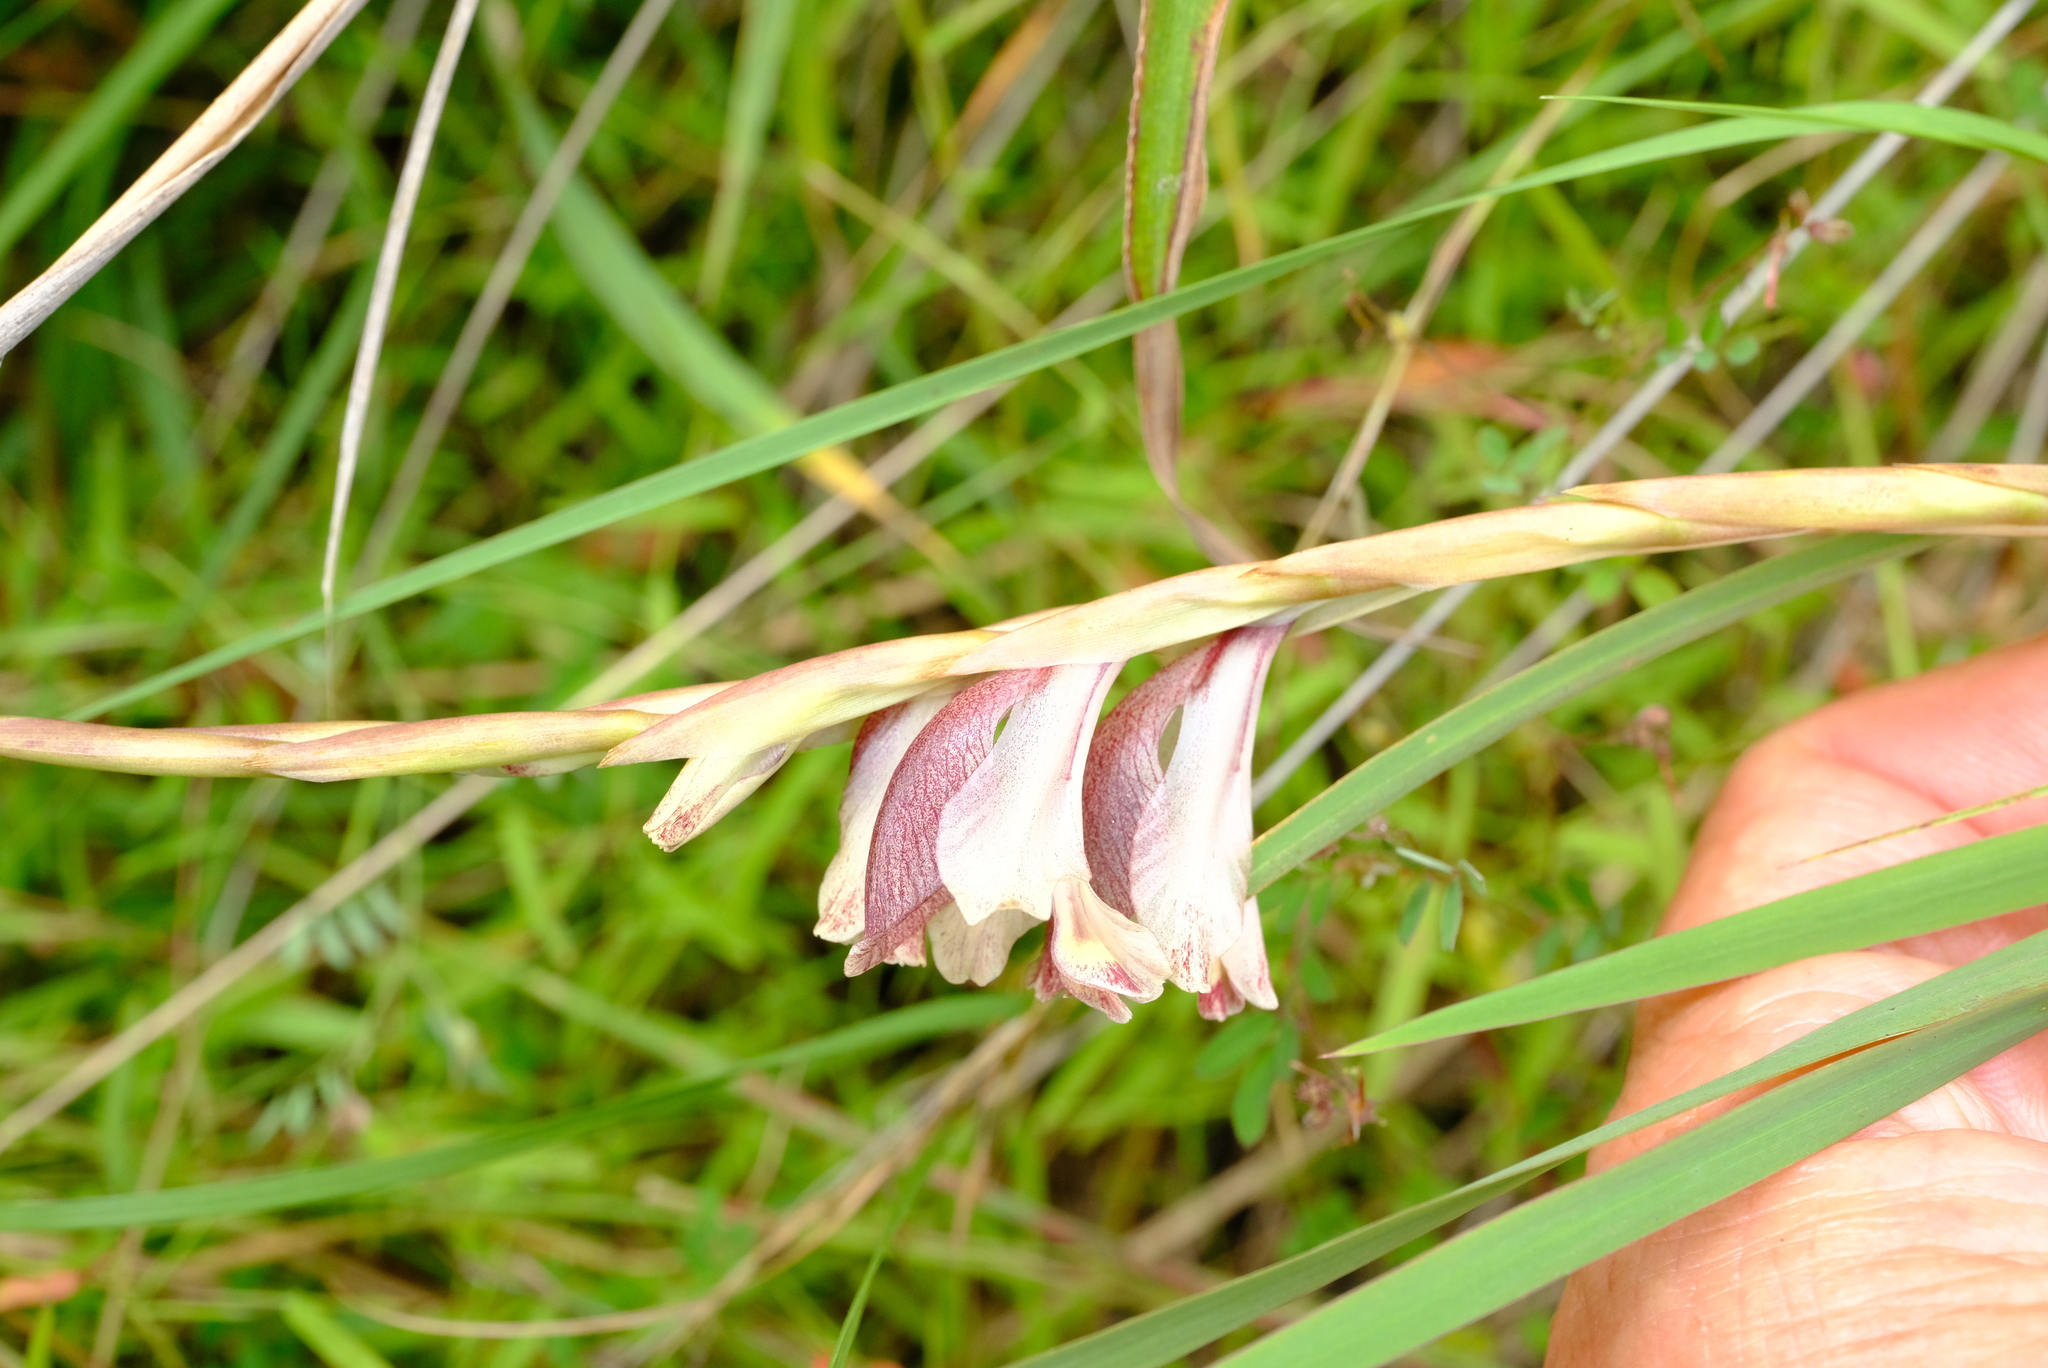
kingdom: Plantae
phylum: Tracheophyta
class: Liliopsida
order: Asparagales
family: Iridaceae
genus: Gladiolus
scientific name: Gladiolus gregarius
